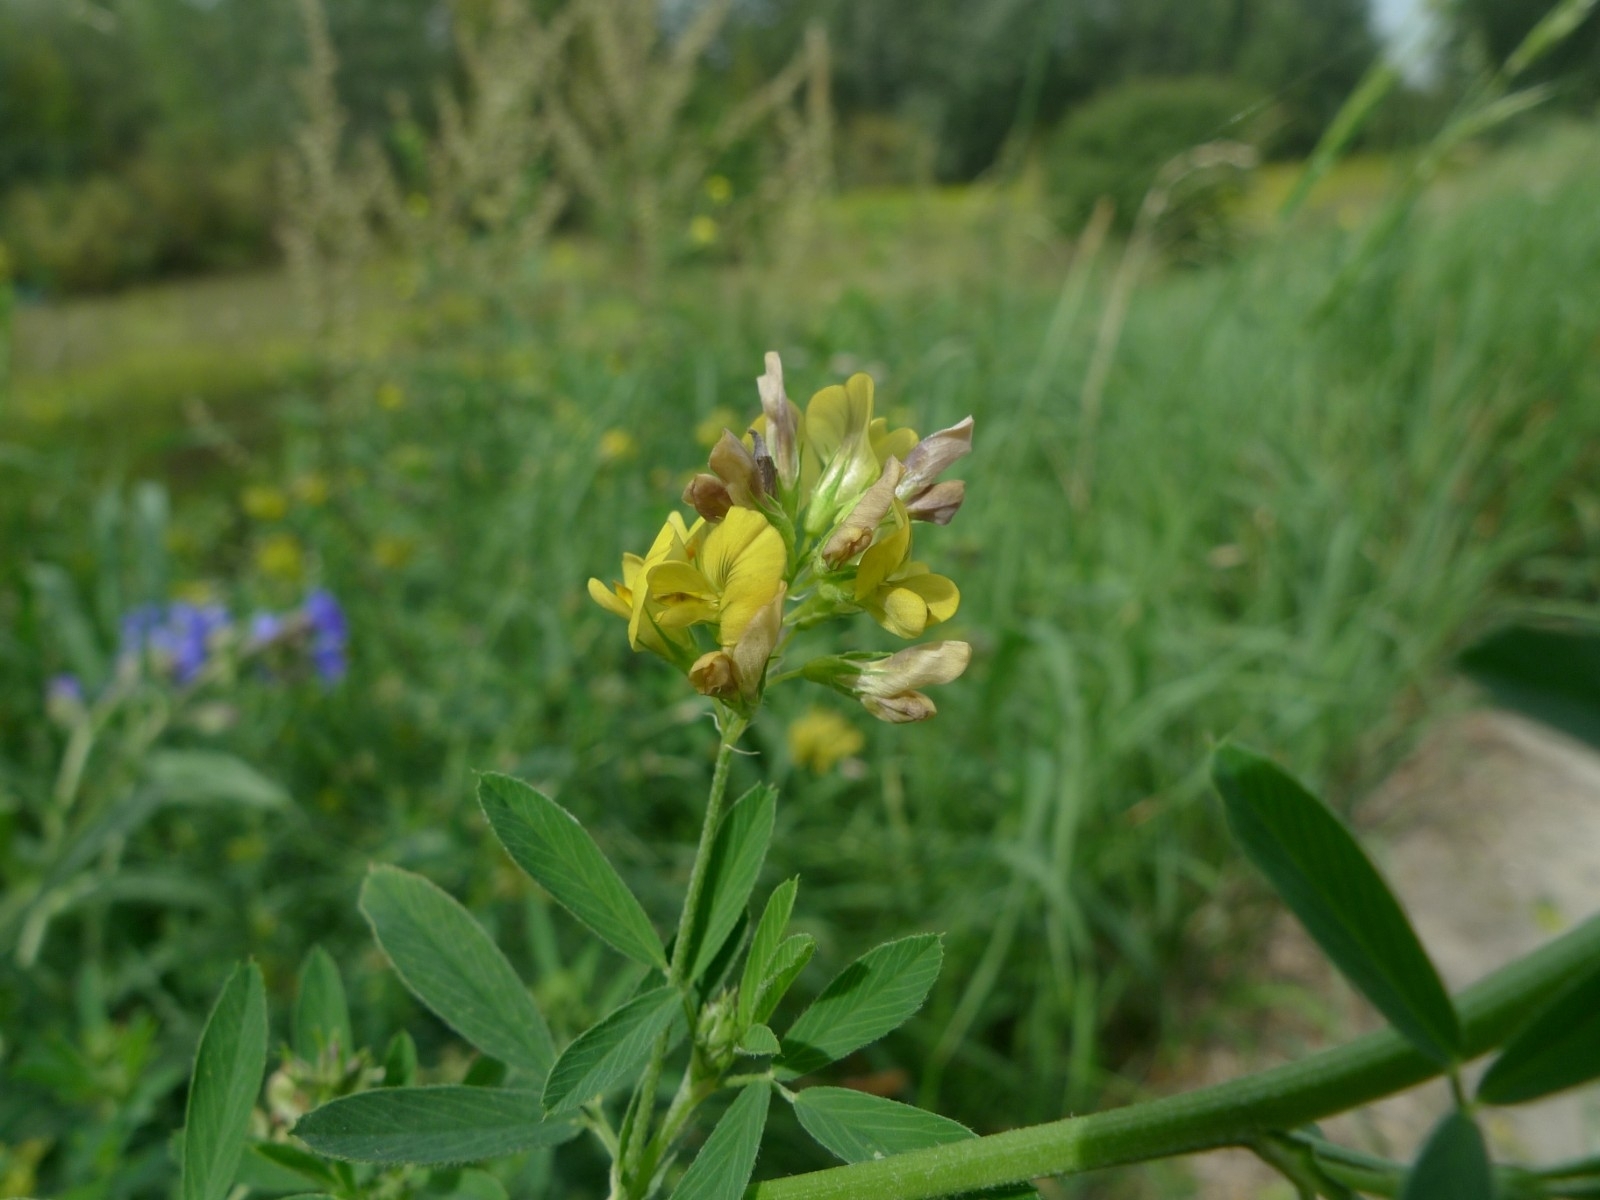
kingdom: Plantae
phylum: Tracheophyta
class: Magnoliopsida
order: Fabales
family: Fabaceae
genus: Medicago
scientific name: Medicago varia
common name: Sand lucerne
